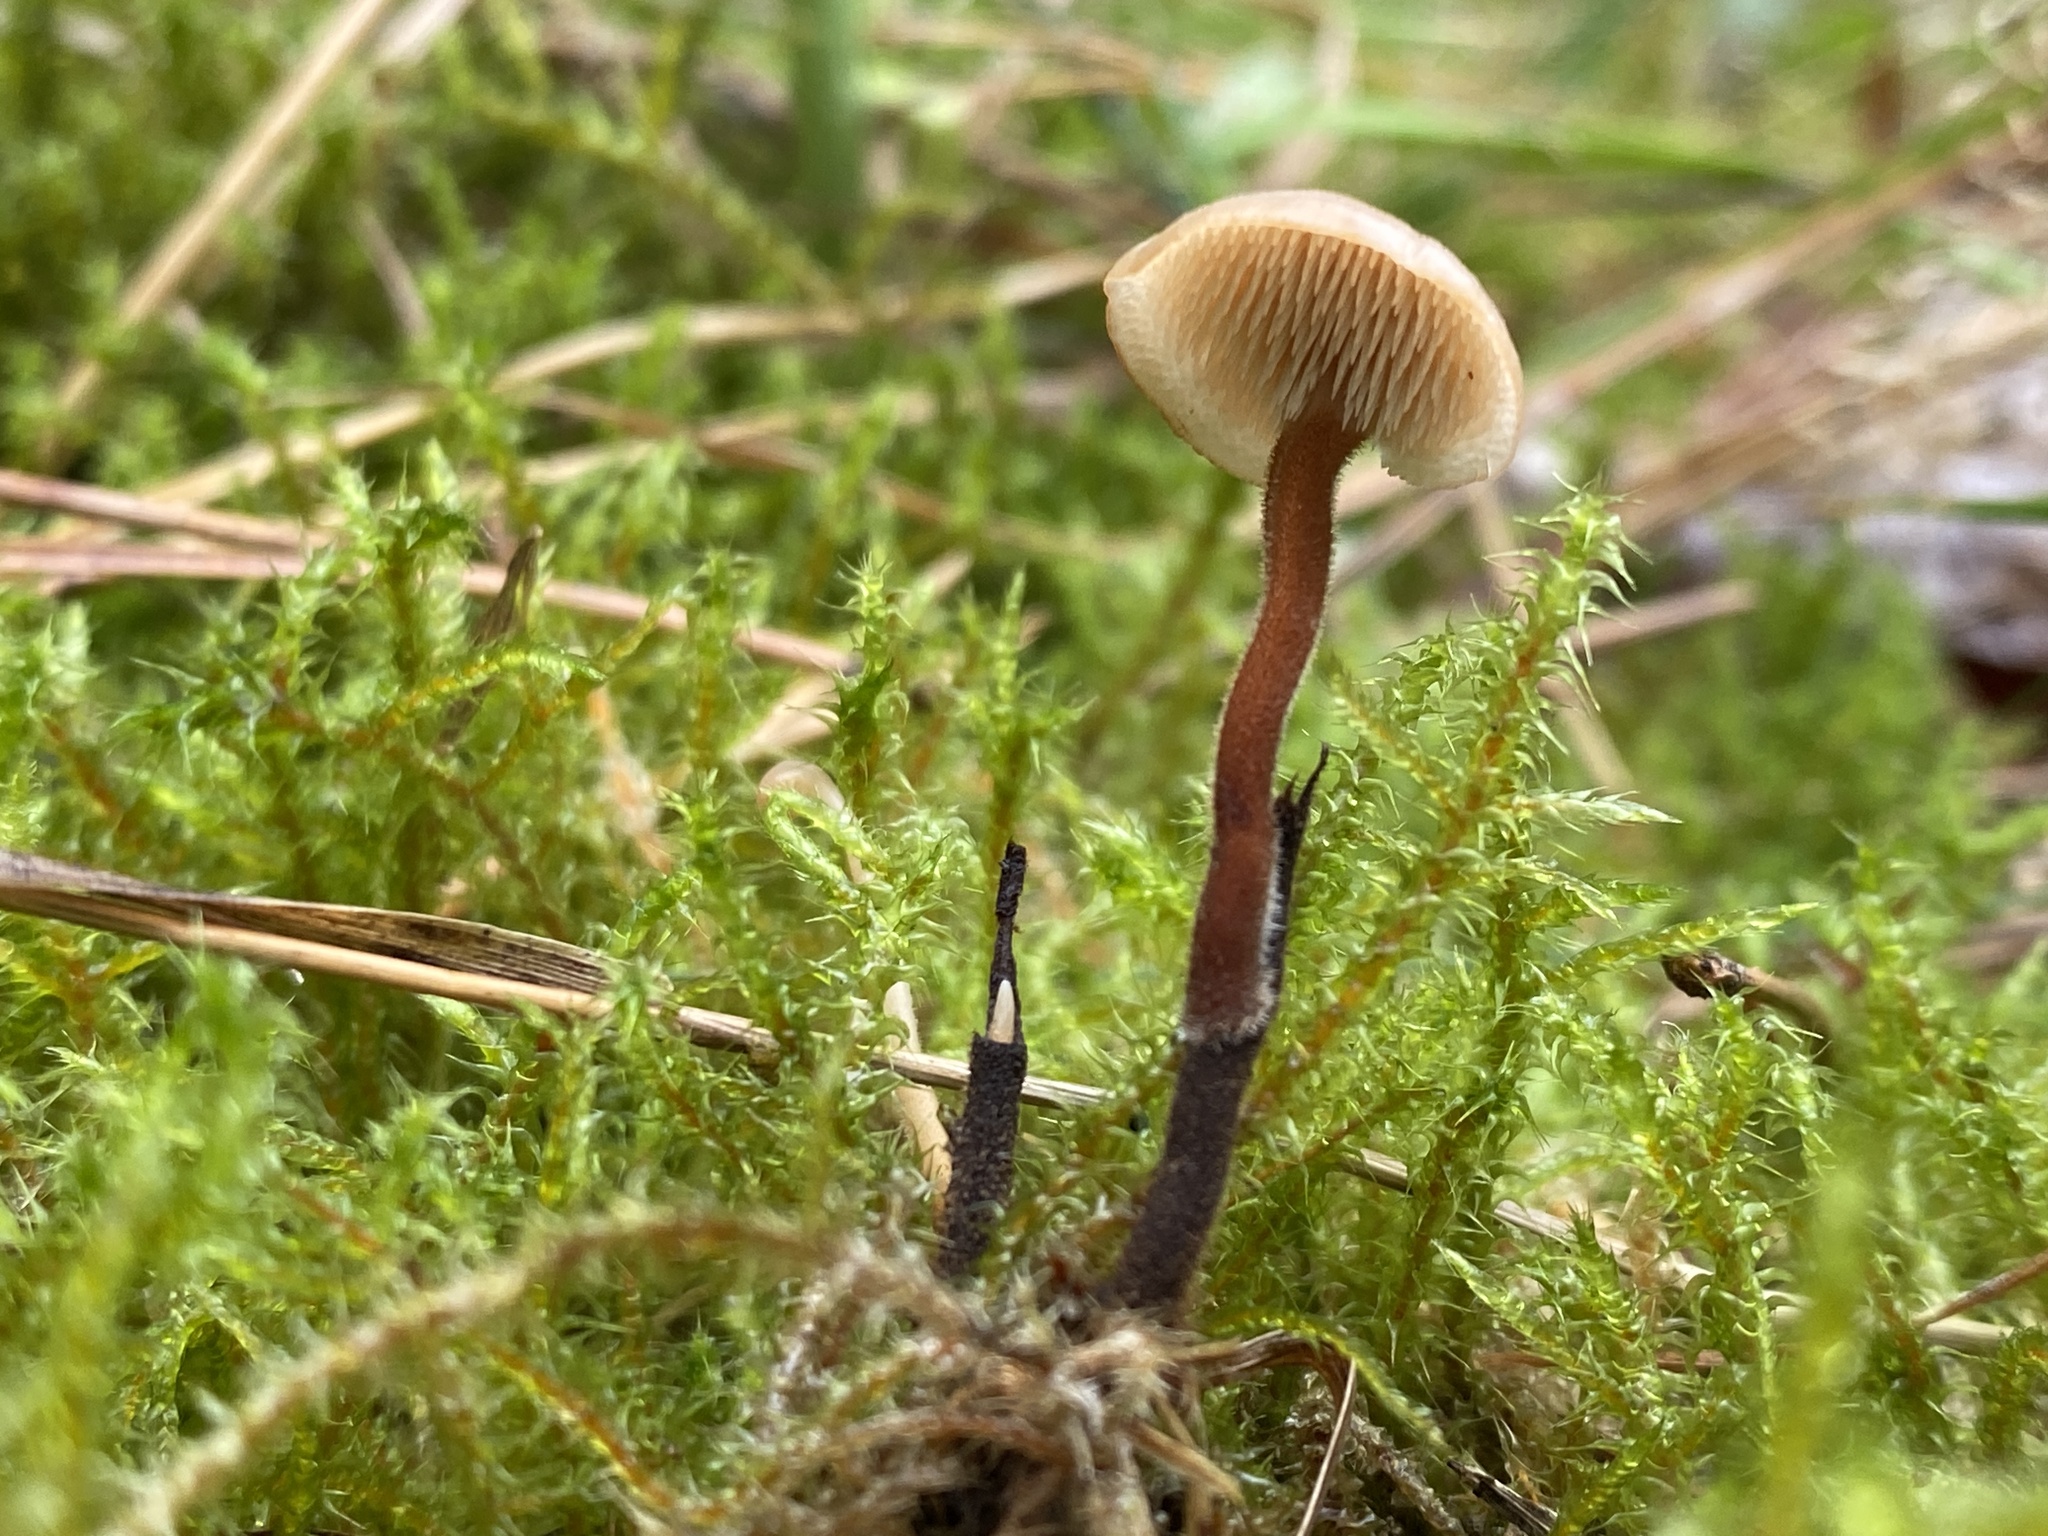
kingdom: Fungi
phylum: Basidiomycota
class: Agaricomycetes
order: Russulales
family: Auriscalpiaceae
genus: Auriscalpium
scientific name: Auriscalpium vulgare
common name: Earpick fungus
